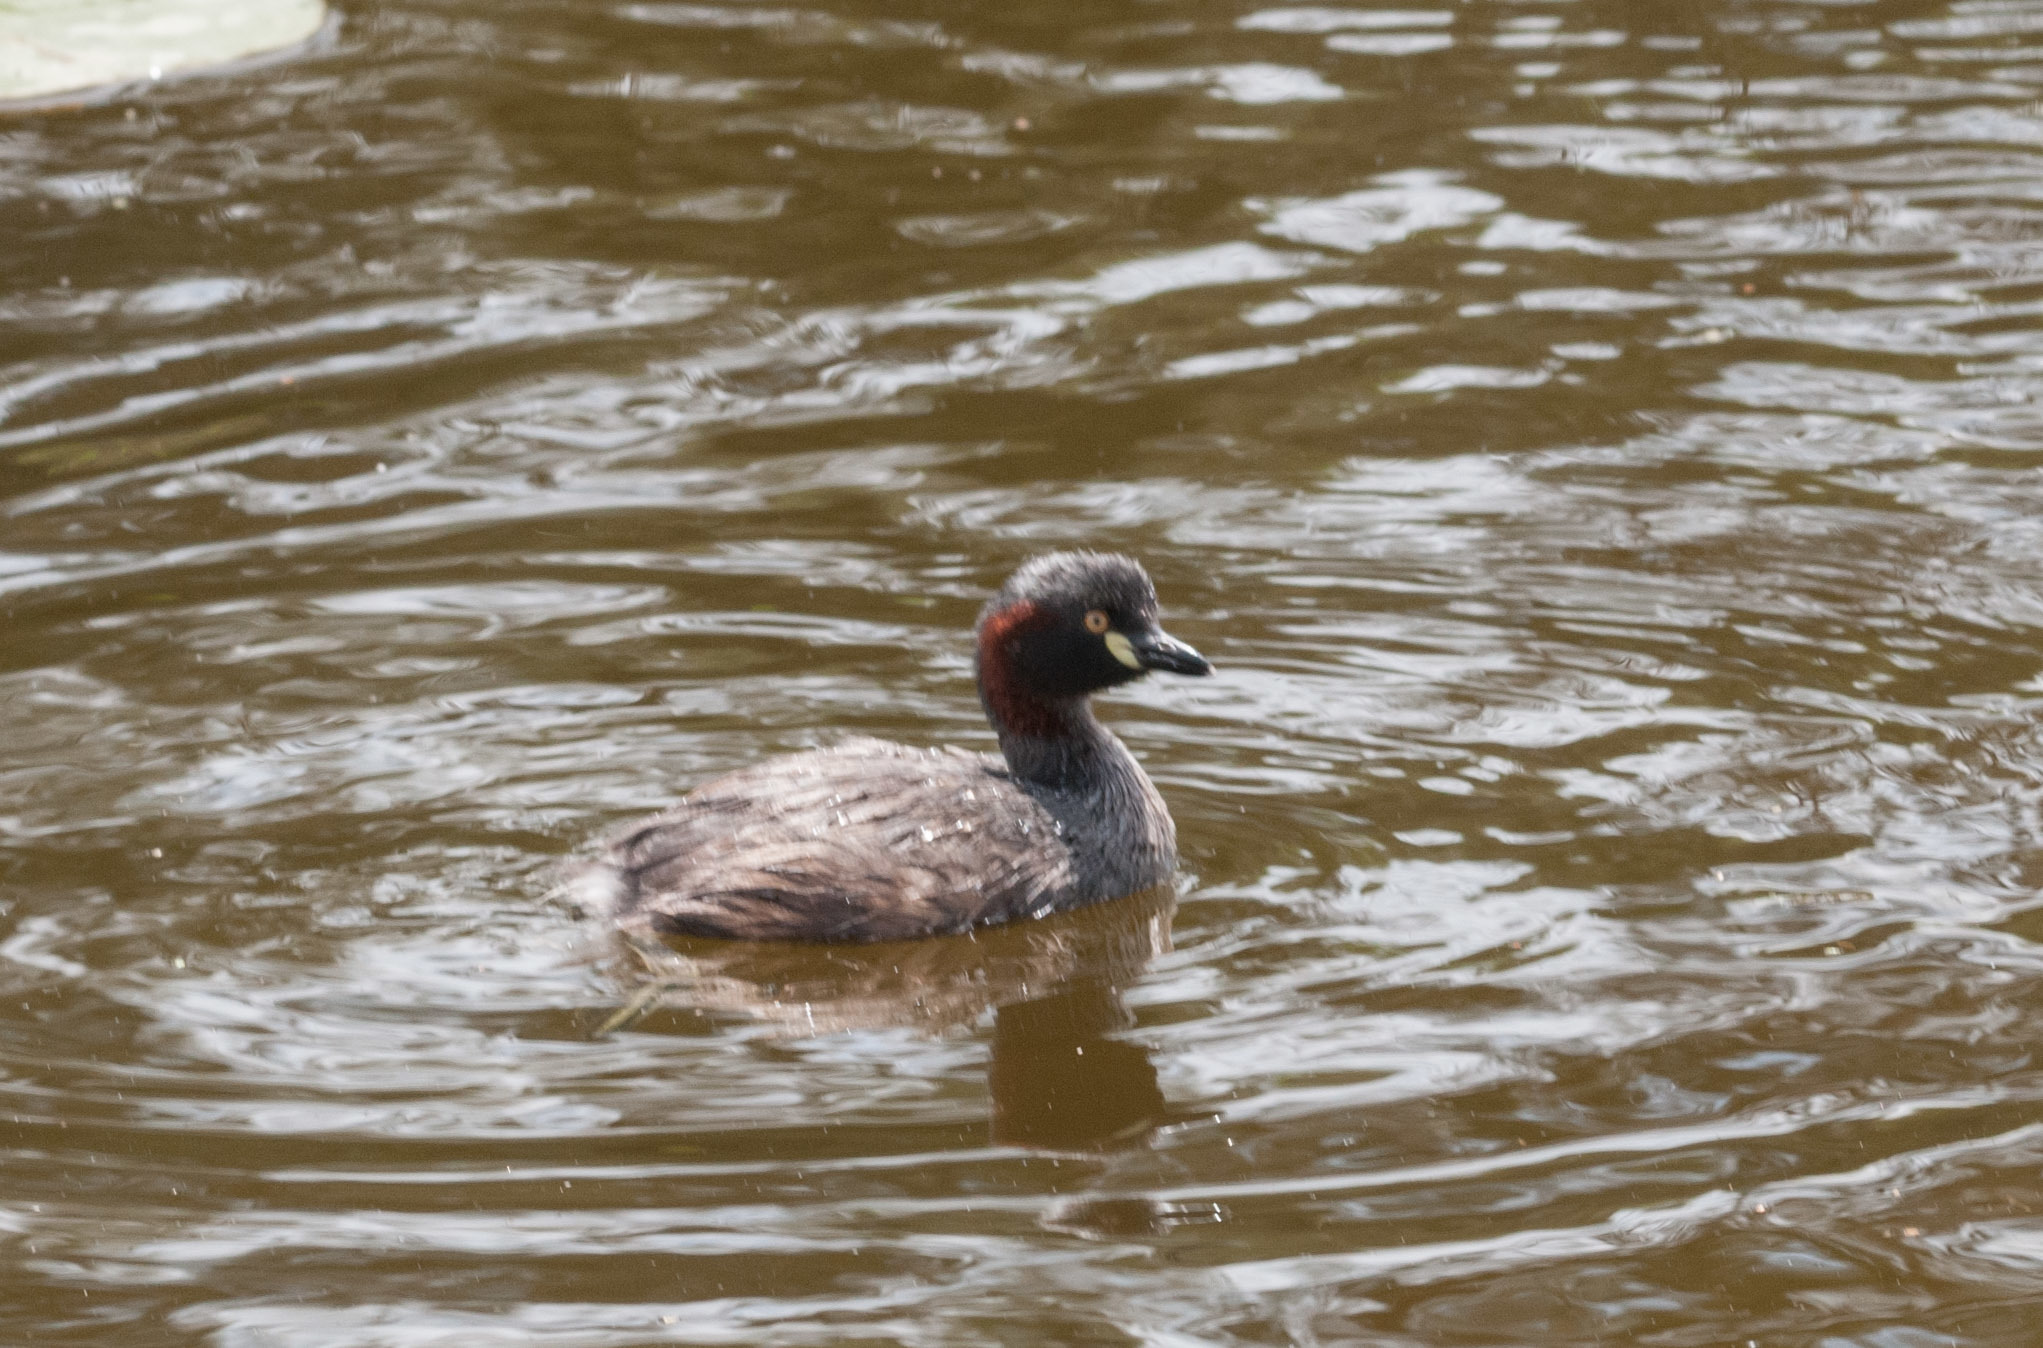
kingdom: Animalia
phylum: Chordata
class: Aves
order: Podicipediformes
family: Podicipedidae
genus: Tachybaptus
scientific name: Tachybaptus novaehollandiae
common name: Australasian grebe
